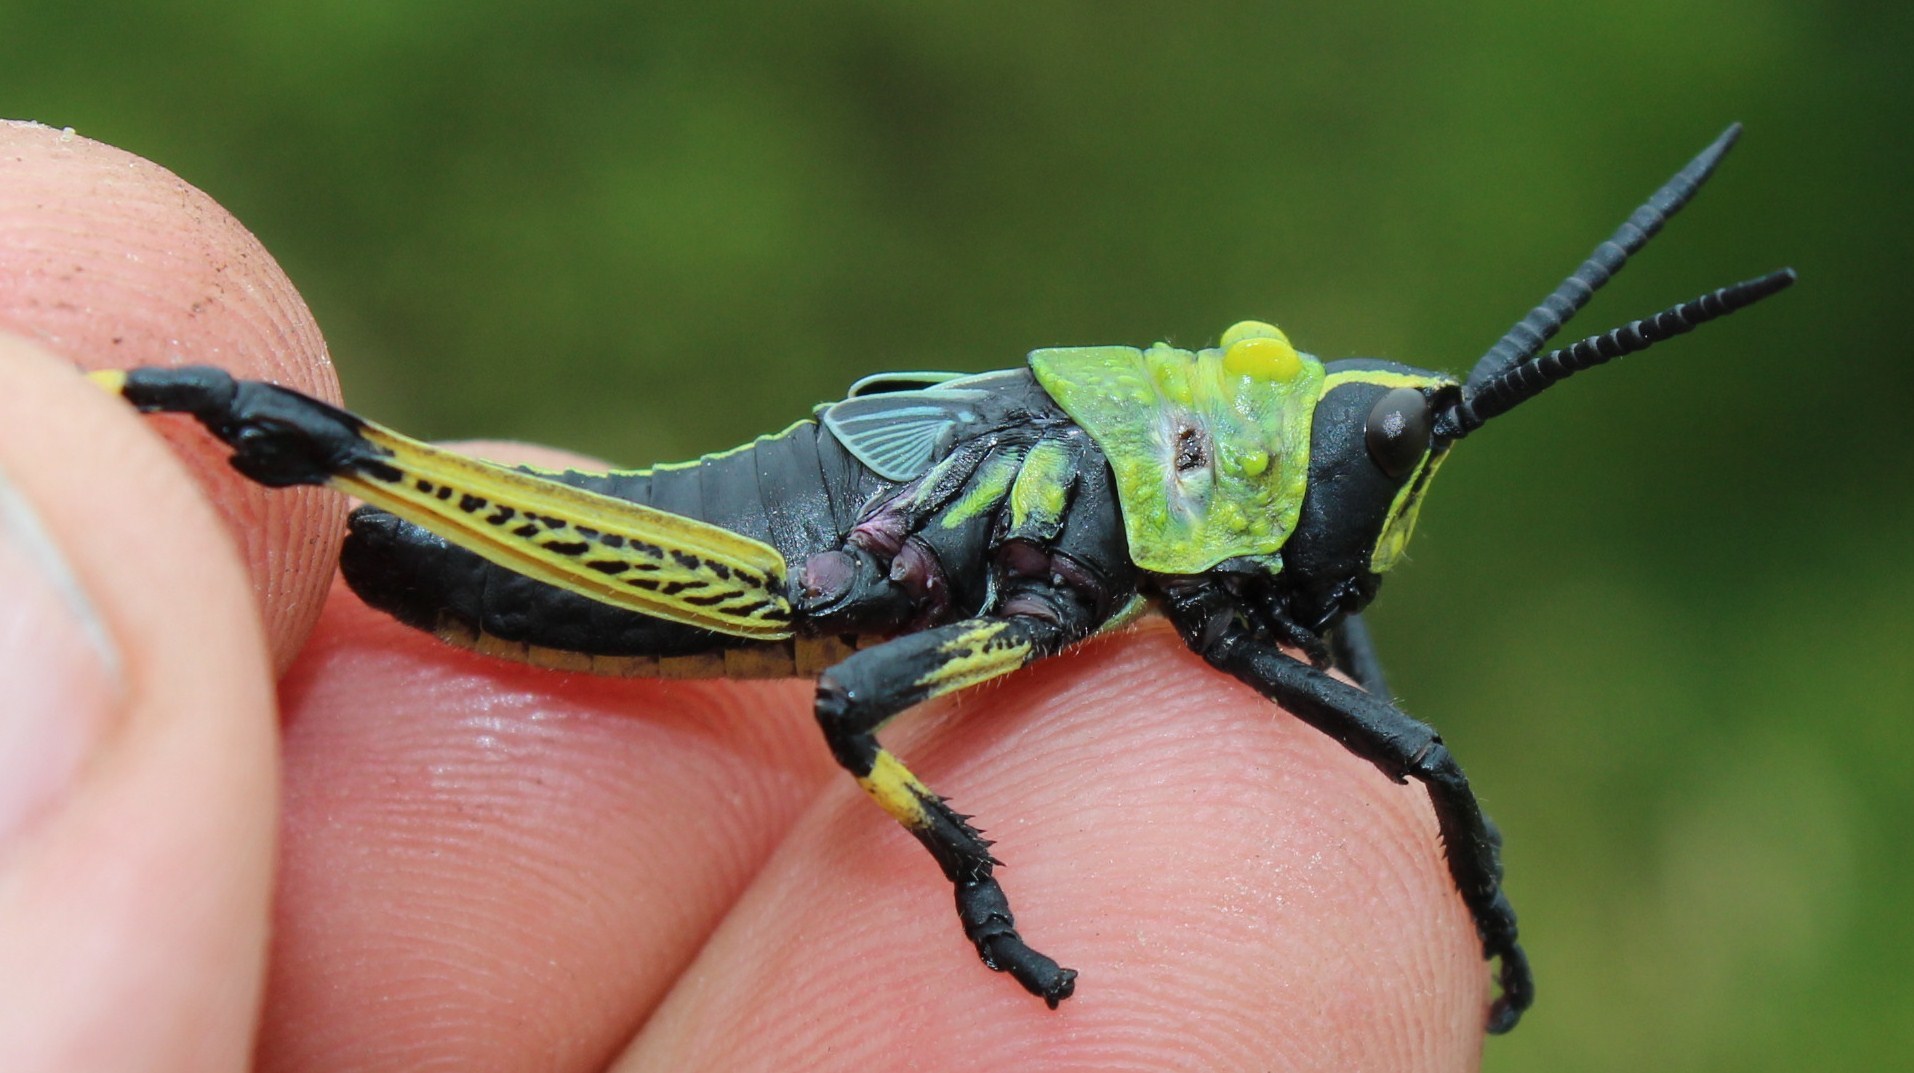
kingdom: Animalia
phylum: Arthropoda
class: Insecta
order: Orthoptera
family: Pyrgomorphidae
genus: Phymateus
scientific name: Phymateus leprosus
